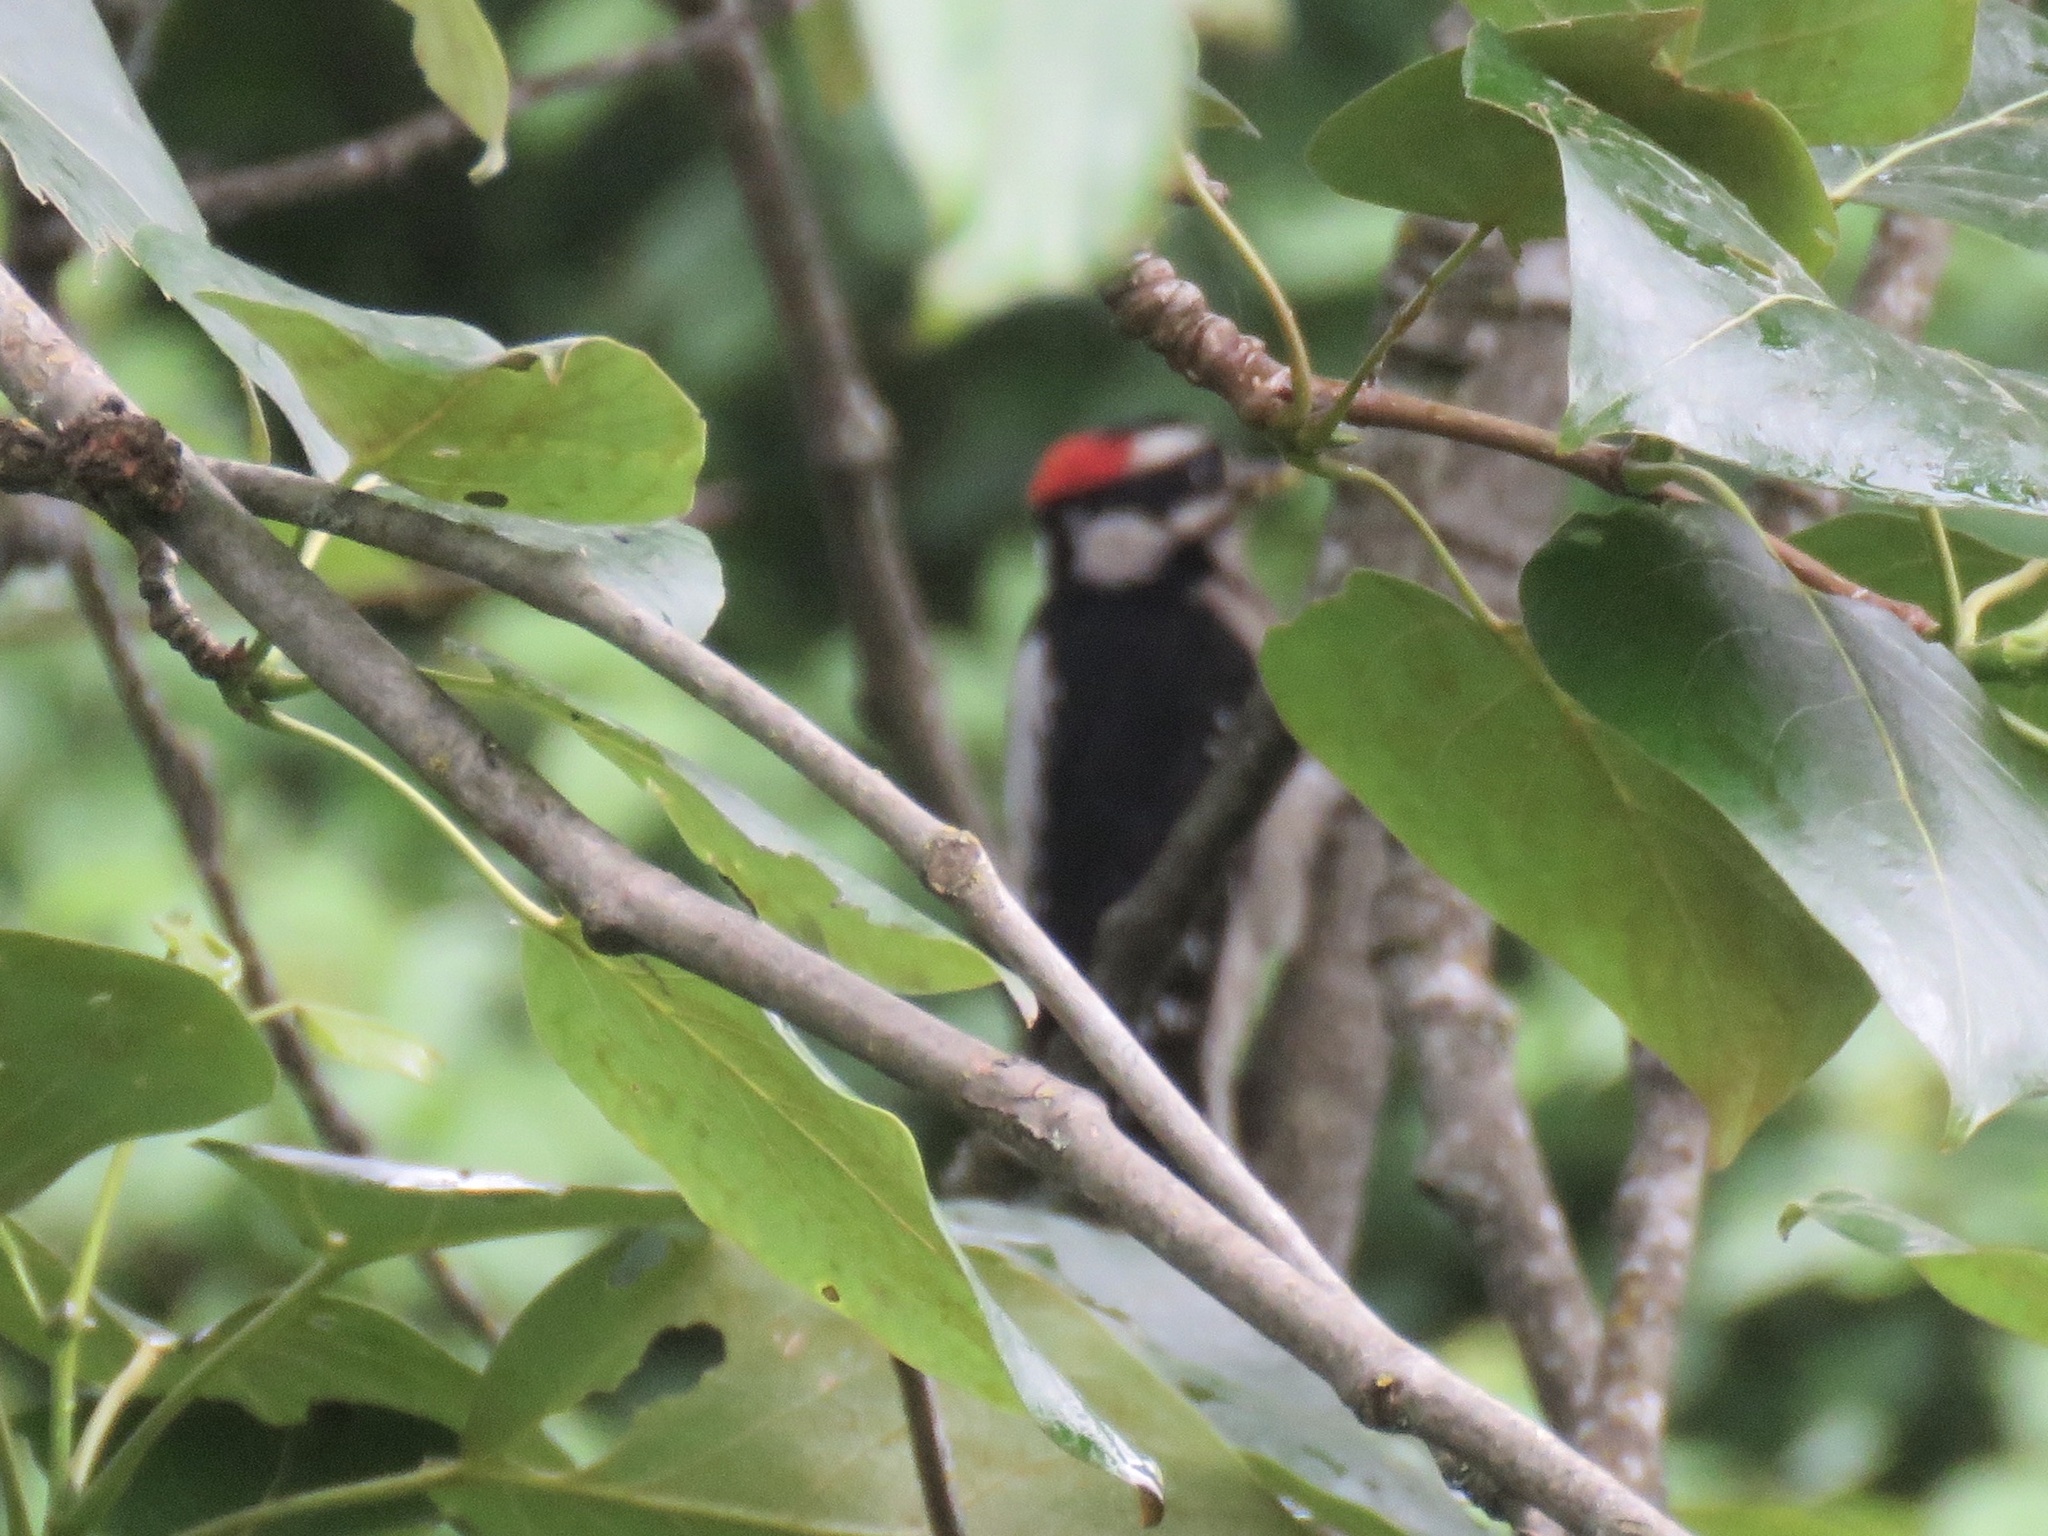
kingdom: Animalia
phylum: Chordata
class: Aves
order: Piciformes
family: Picidae
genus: Dryobates
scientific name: Dryobates pubescens
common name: Downy woodpecker
